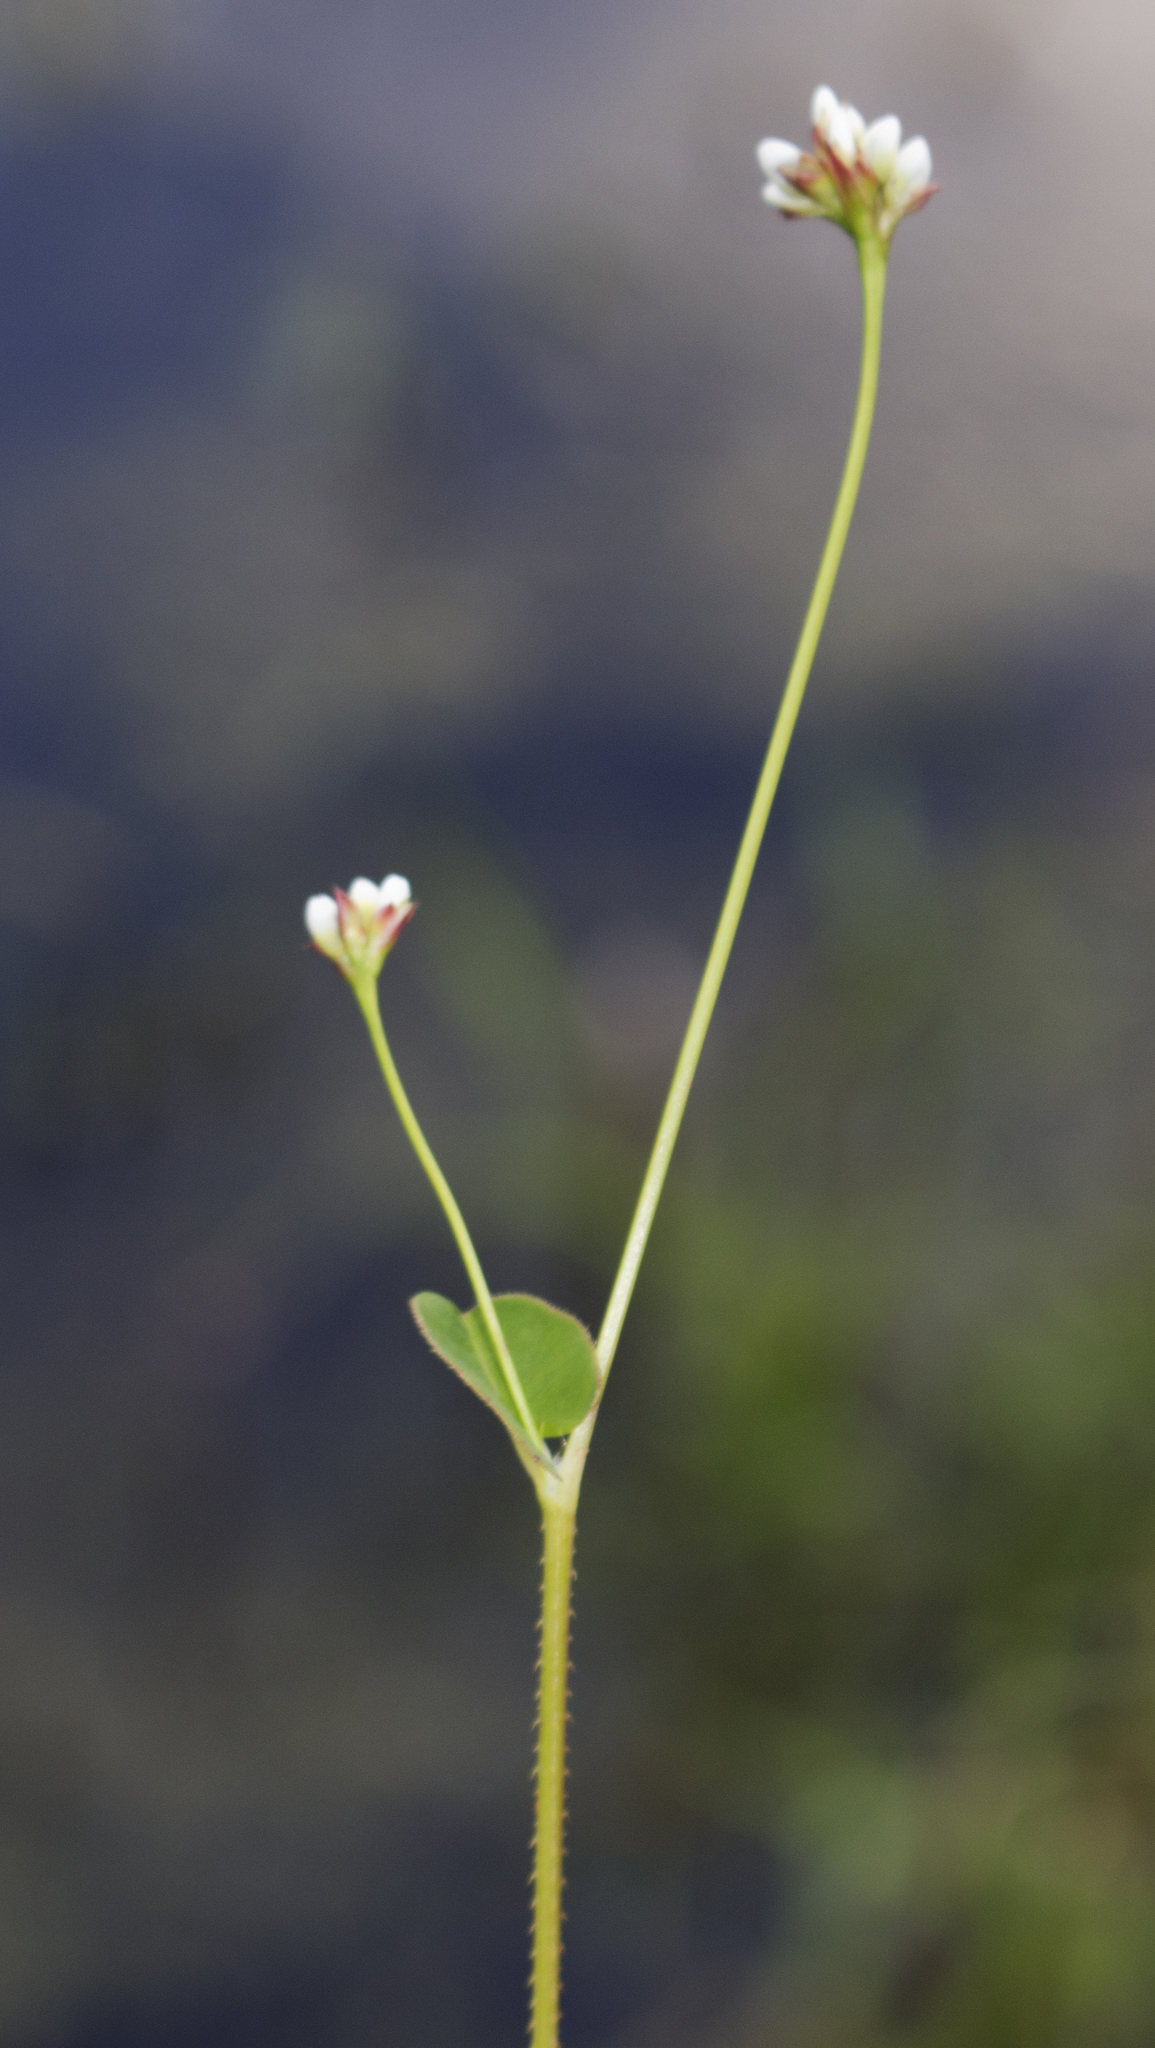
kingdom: Plantae
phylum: Tracheophyta
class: Magnoliopsida
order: Caryophyllales
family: Polygonaceae
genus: Persicaria
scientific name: Persicaria sagittata
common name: American tearthumb
